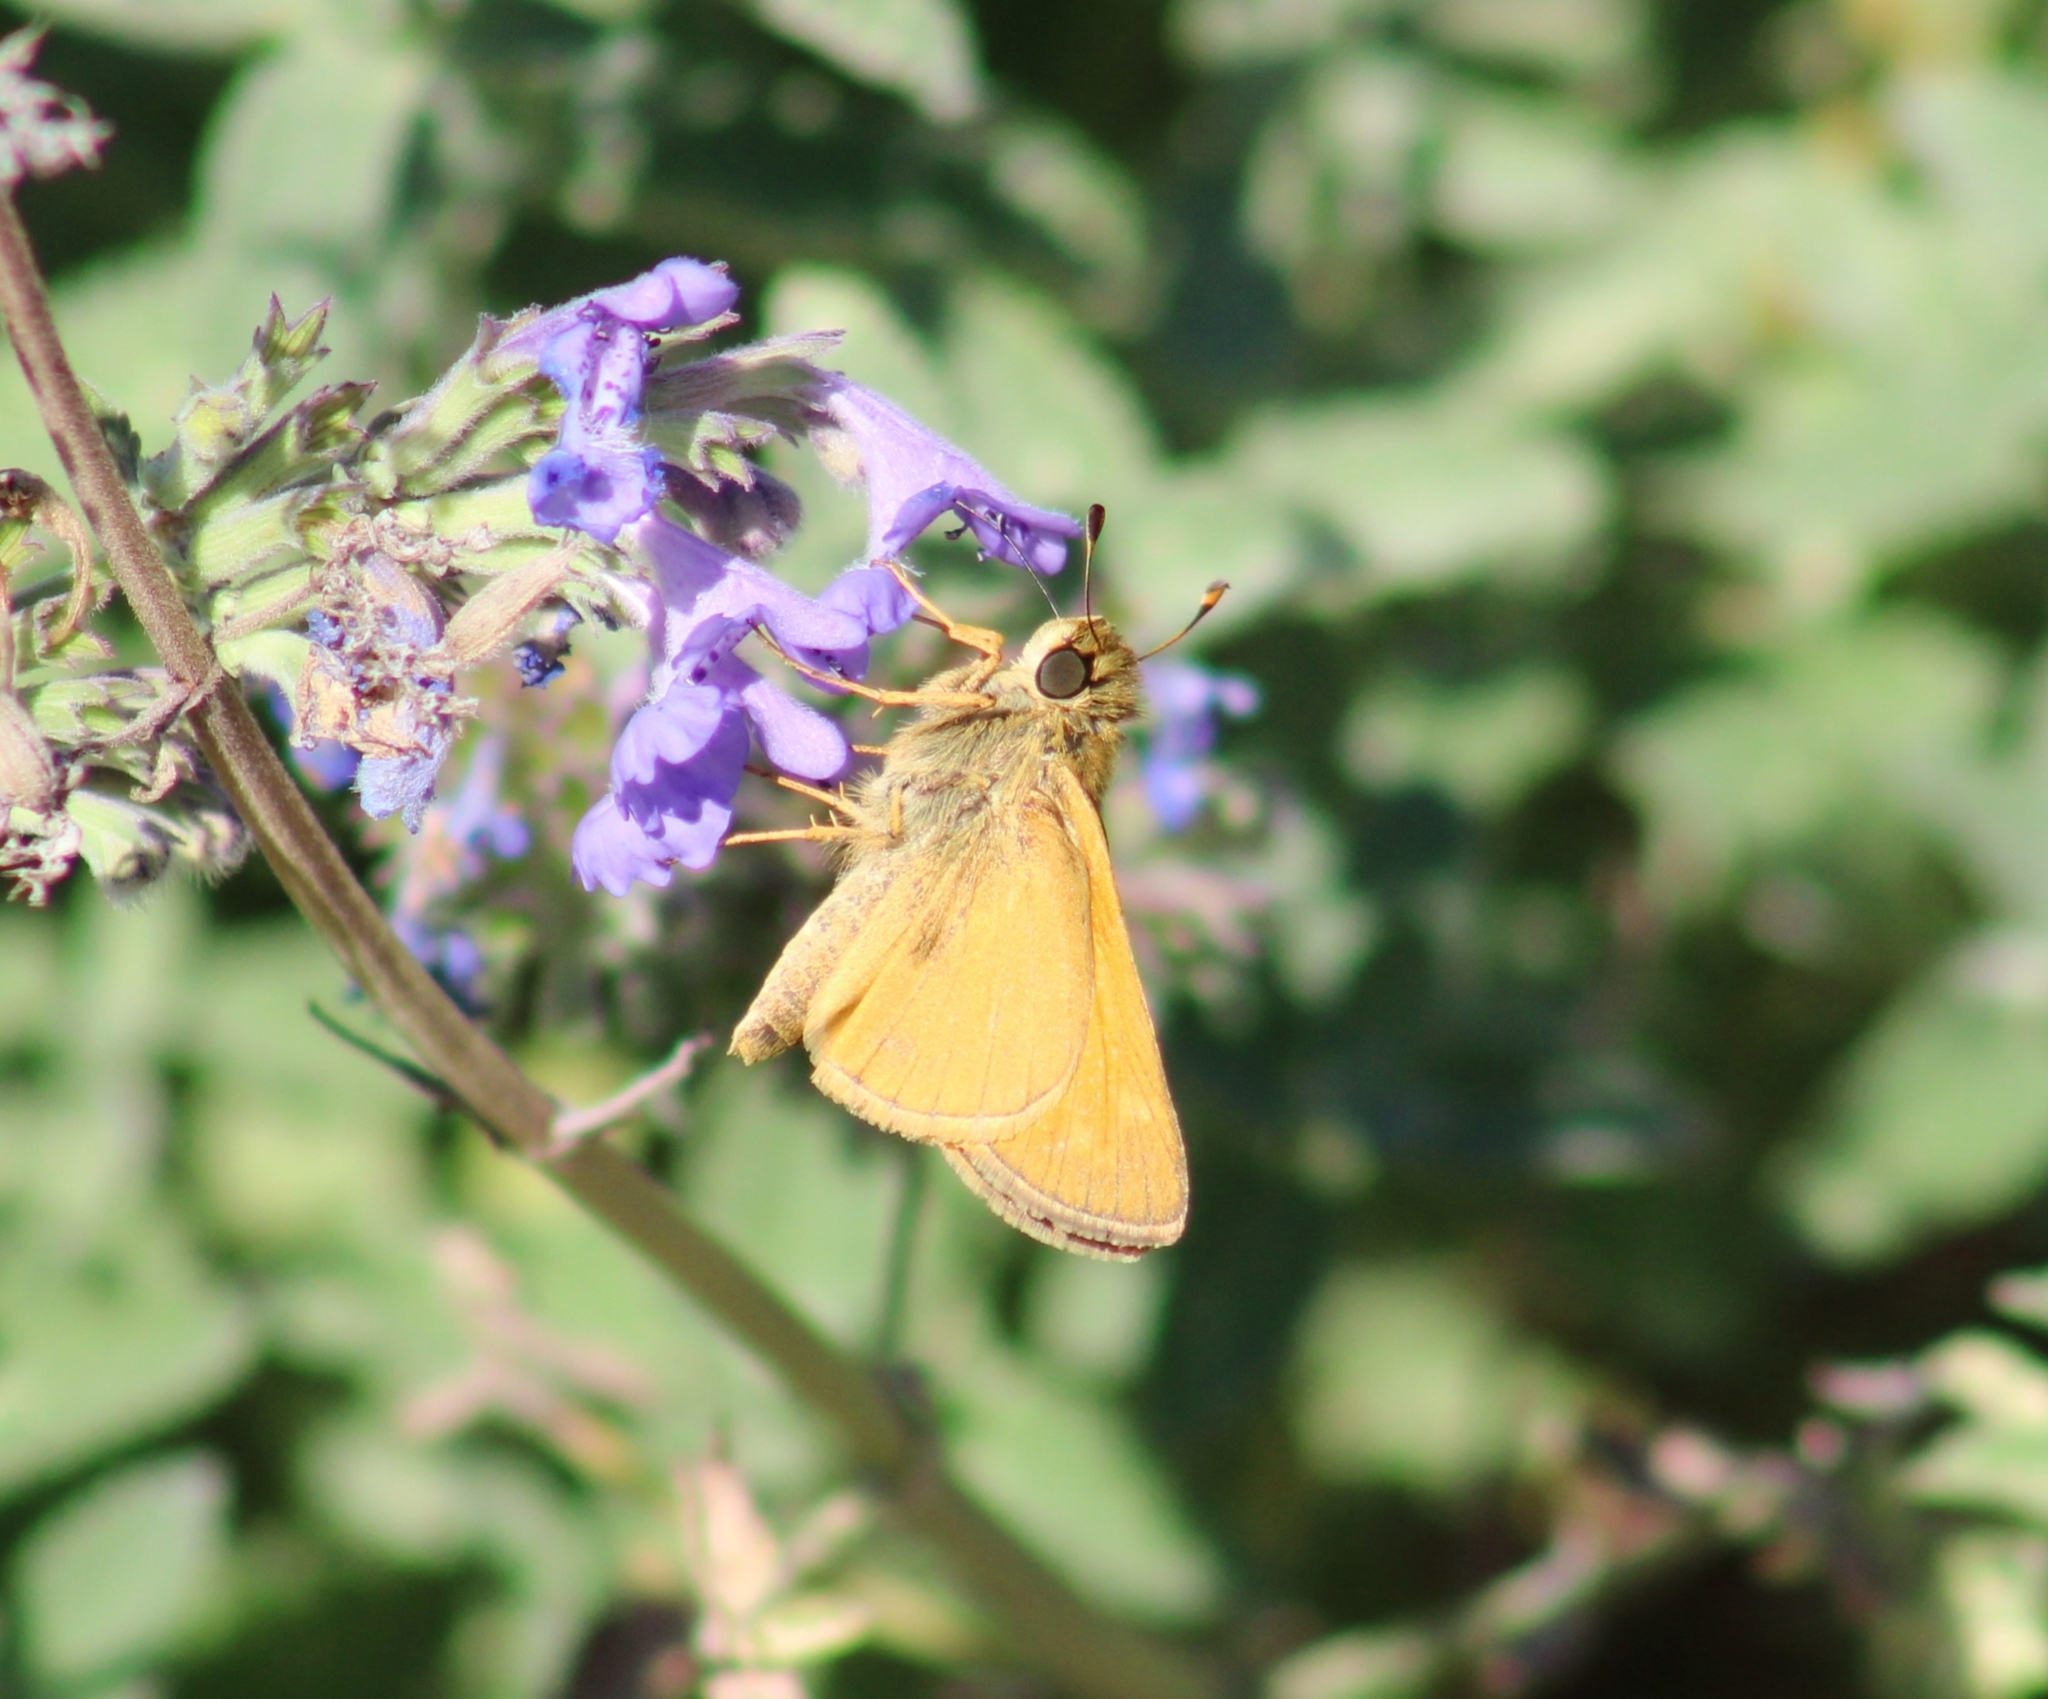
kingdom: Animalia
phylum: Arthropoda
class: Insecta
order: Lepidoptera
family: Hesperiidae
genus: Atalopedes
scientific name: Atalopedes
